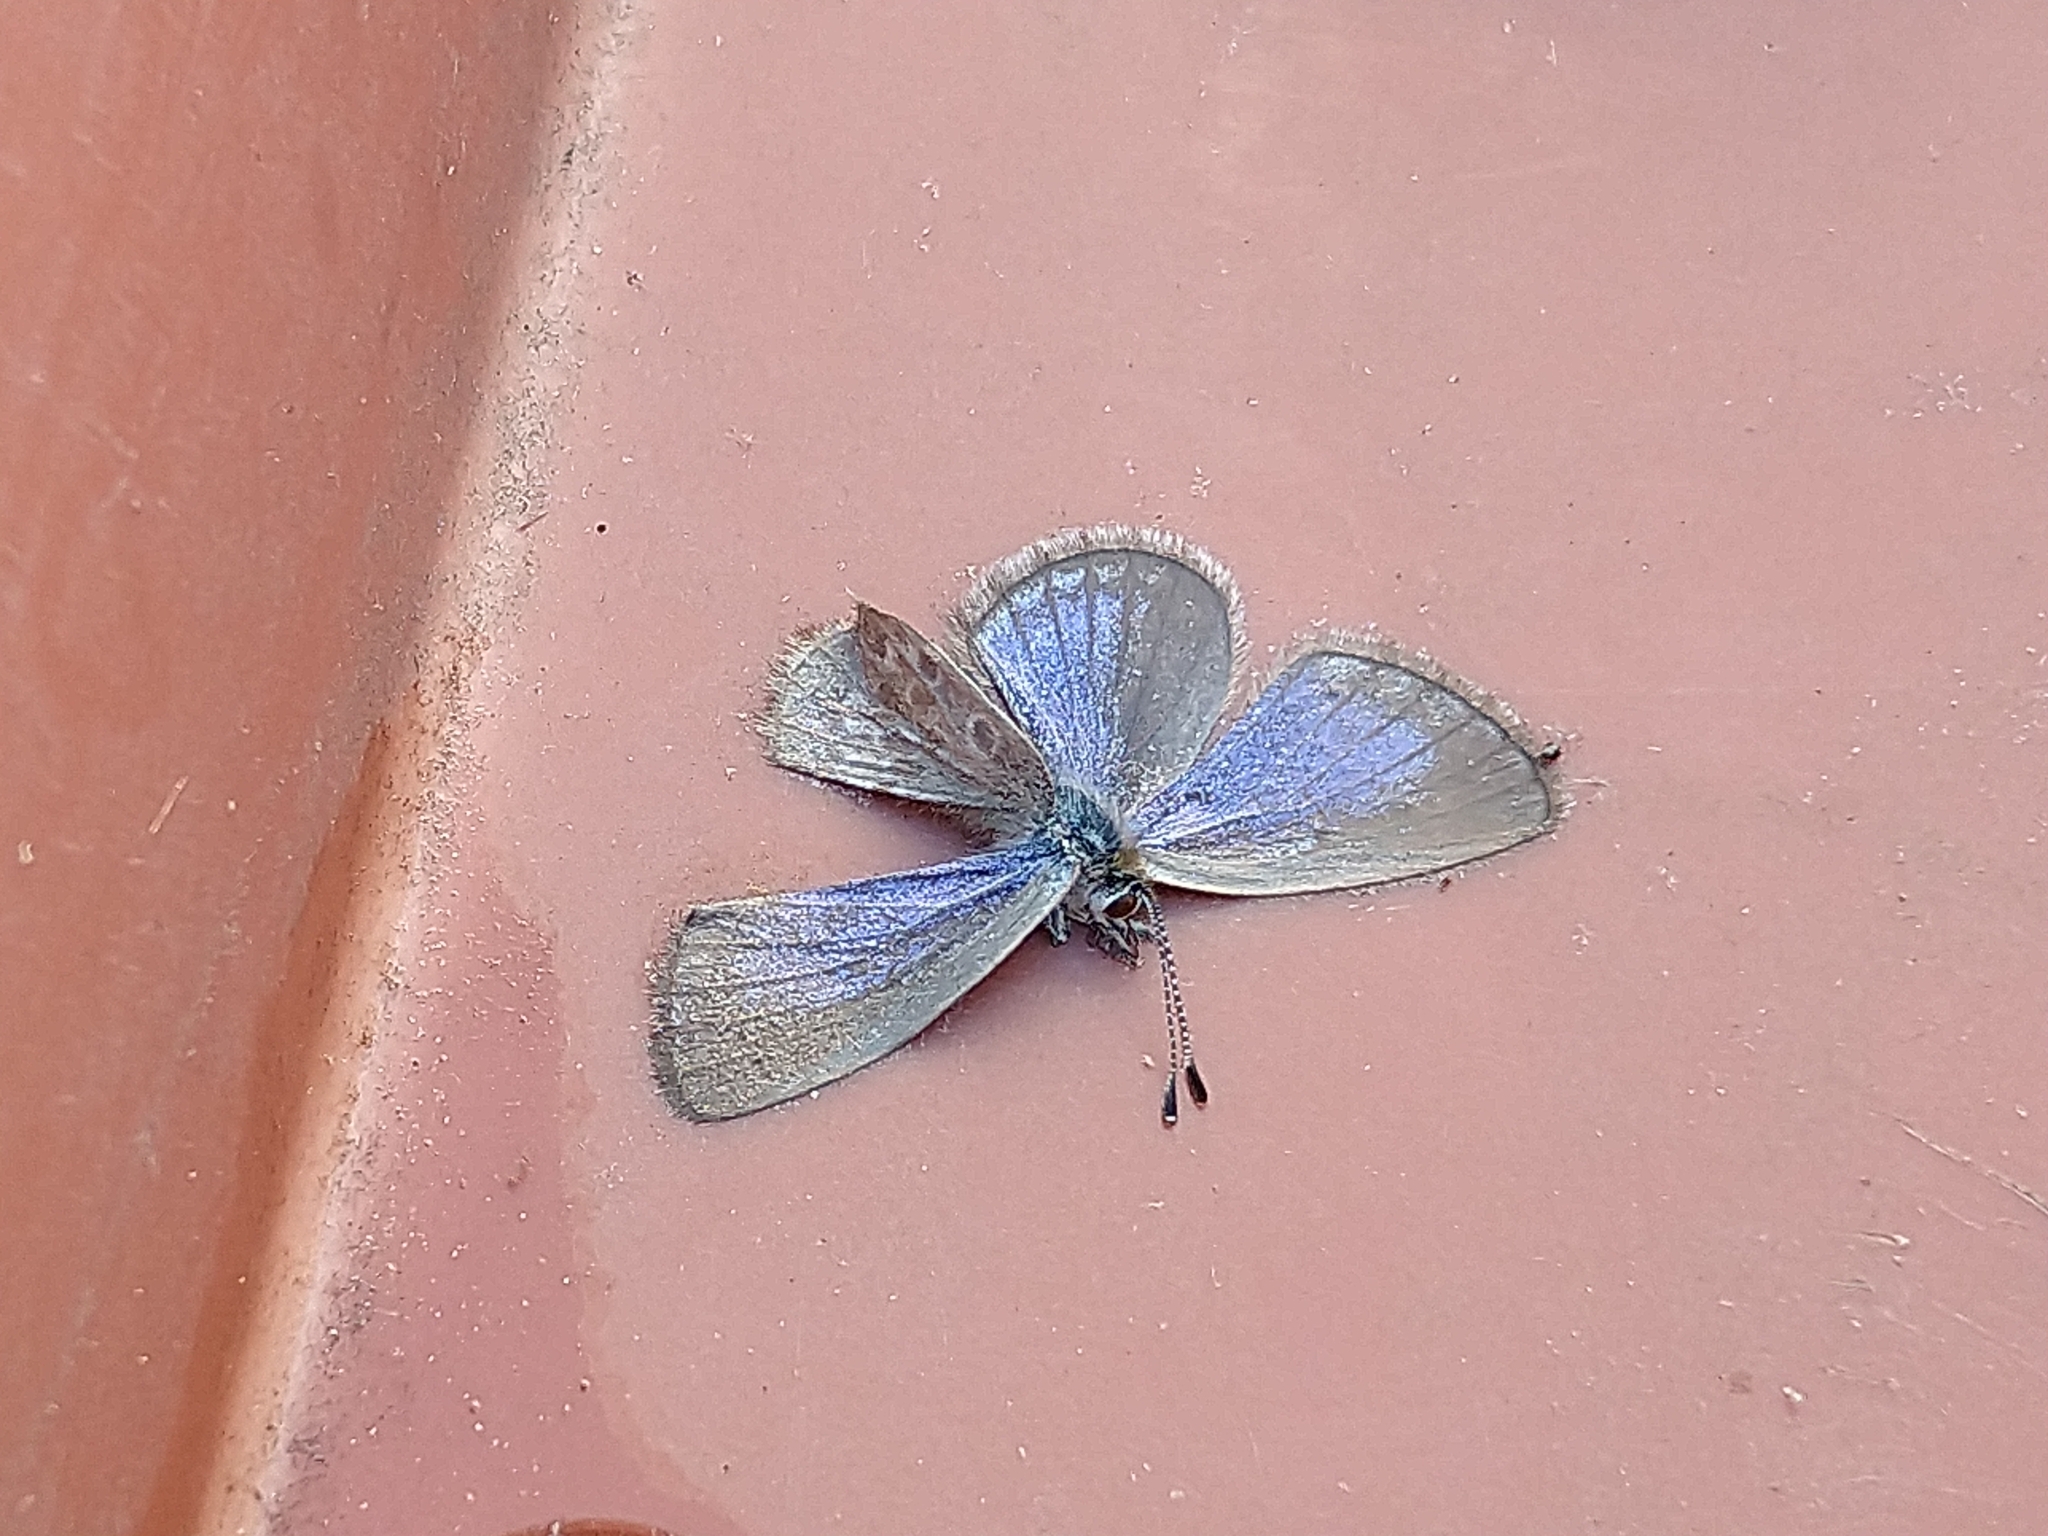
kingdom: Animalia
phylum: Arthropoda
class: Insecta
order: Lepidoptera
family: Lycaenidae
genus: Zizina
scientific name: Zizina otis
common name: Lesser grass blue
